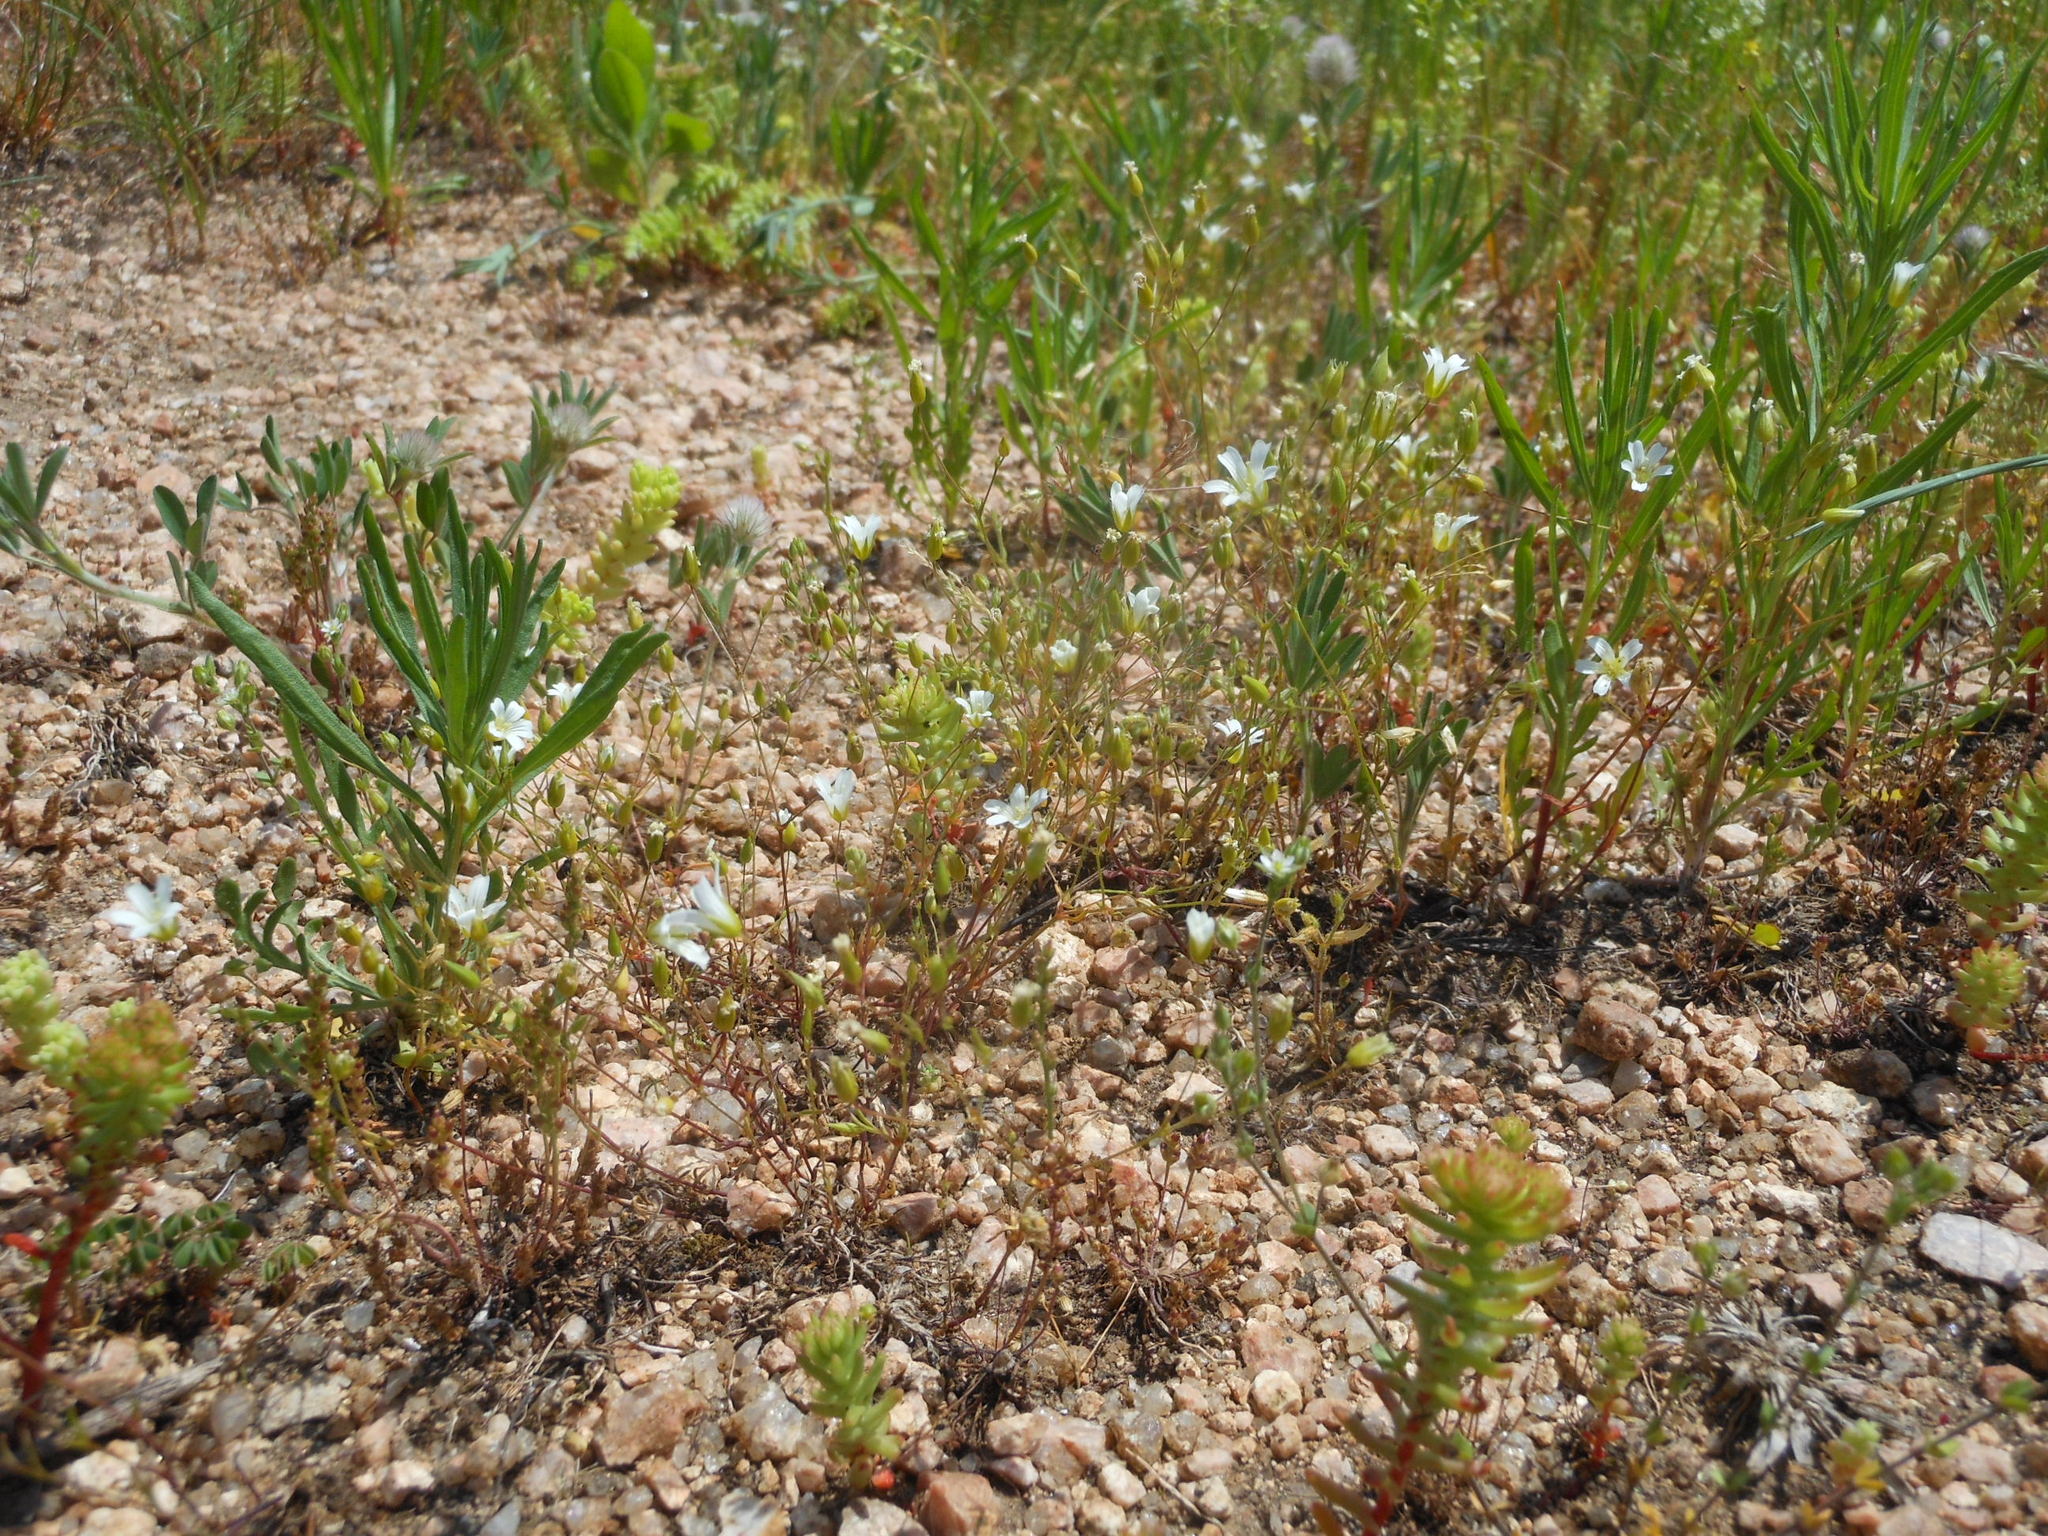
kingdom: Plantae
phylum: Tracheophyta
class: Magnoliopsida
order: Caryophyllales
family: Caryophyllaceae
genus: Mononeuria
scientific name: Mononeuria patula
